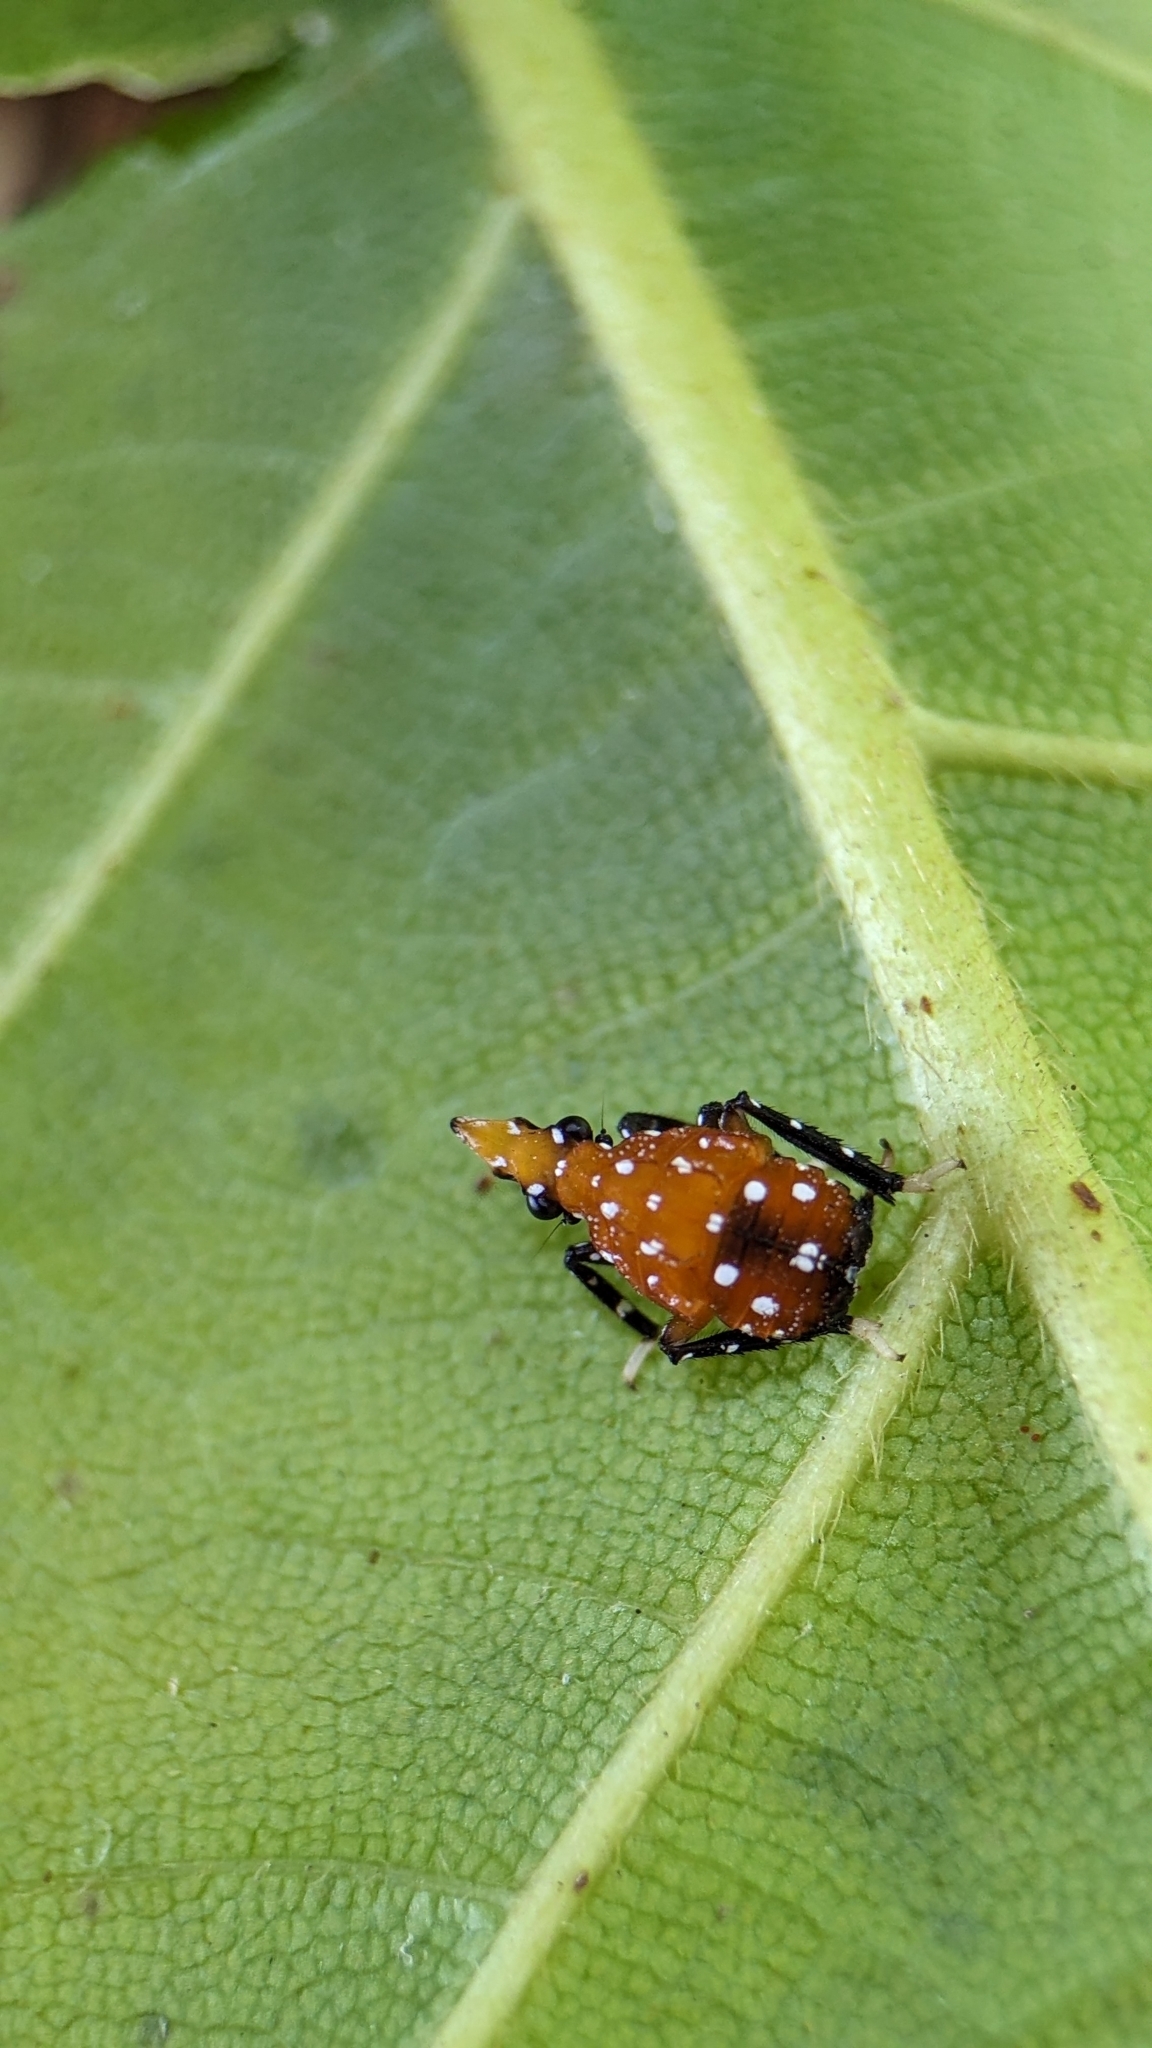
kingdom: Animalia
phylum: Arthropoda
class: Insecta
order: Hemiptera
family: Fulgoridae
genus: Kalidasa
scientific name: Kalidasa lanata
